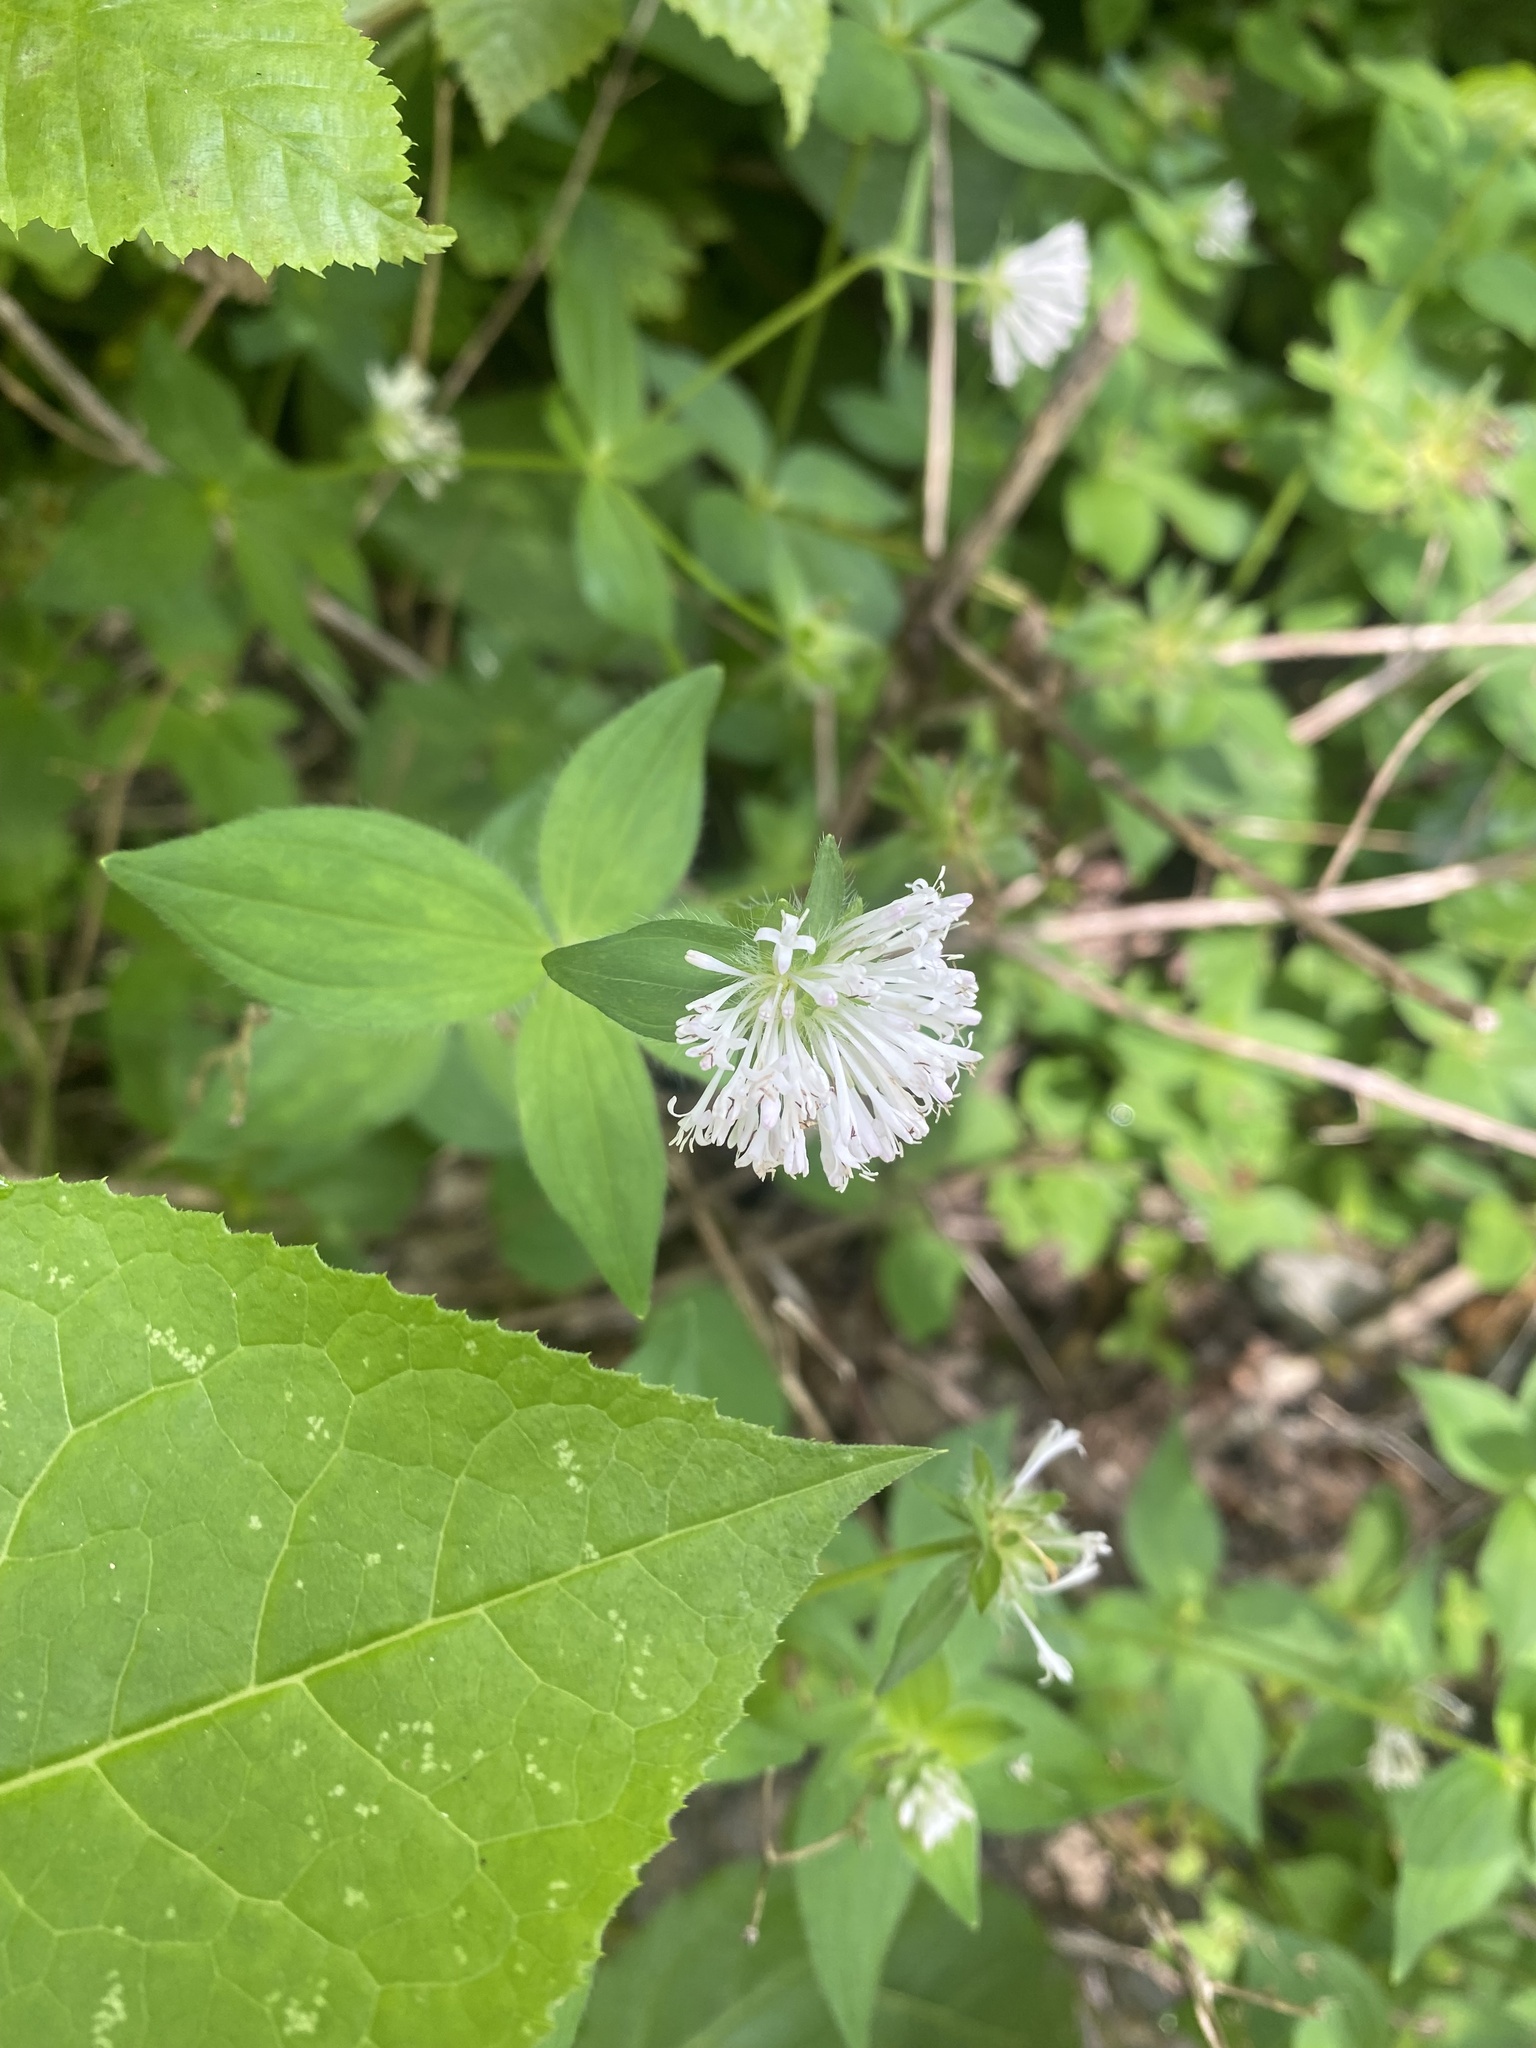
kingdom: Plantae
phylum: Tracheophyta
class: Magnoliopsida
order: Gentianales
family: Rubiaceae
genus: Asperula
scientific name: Asperula taurina
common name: Pink woodruff
